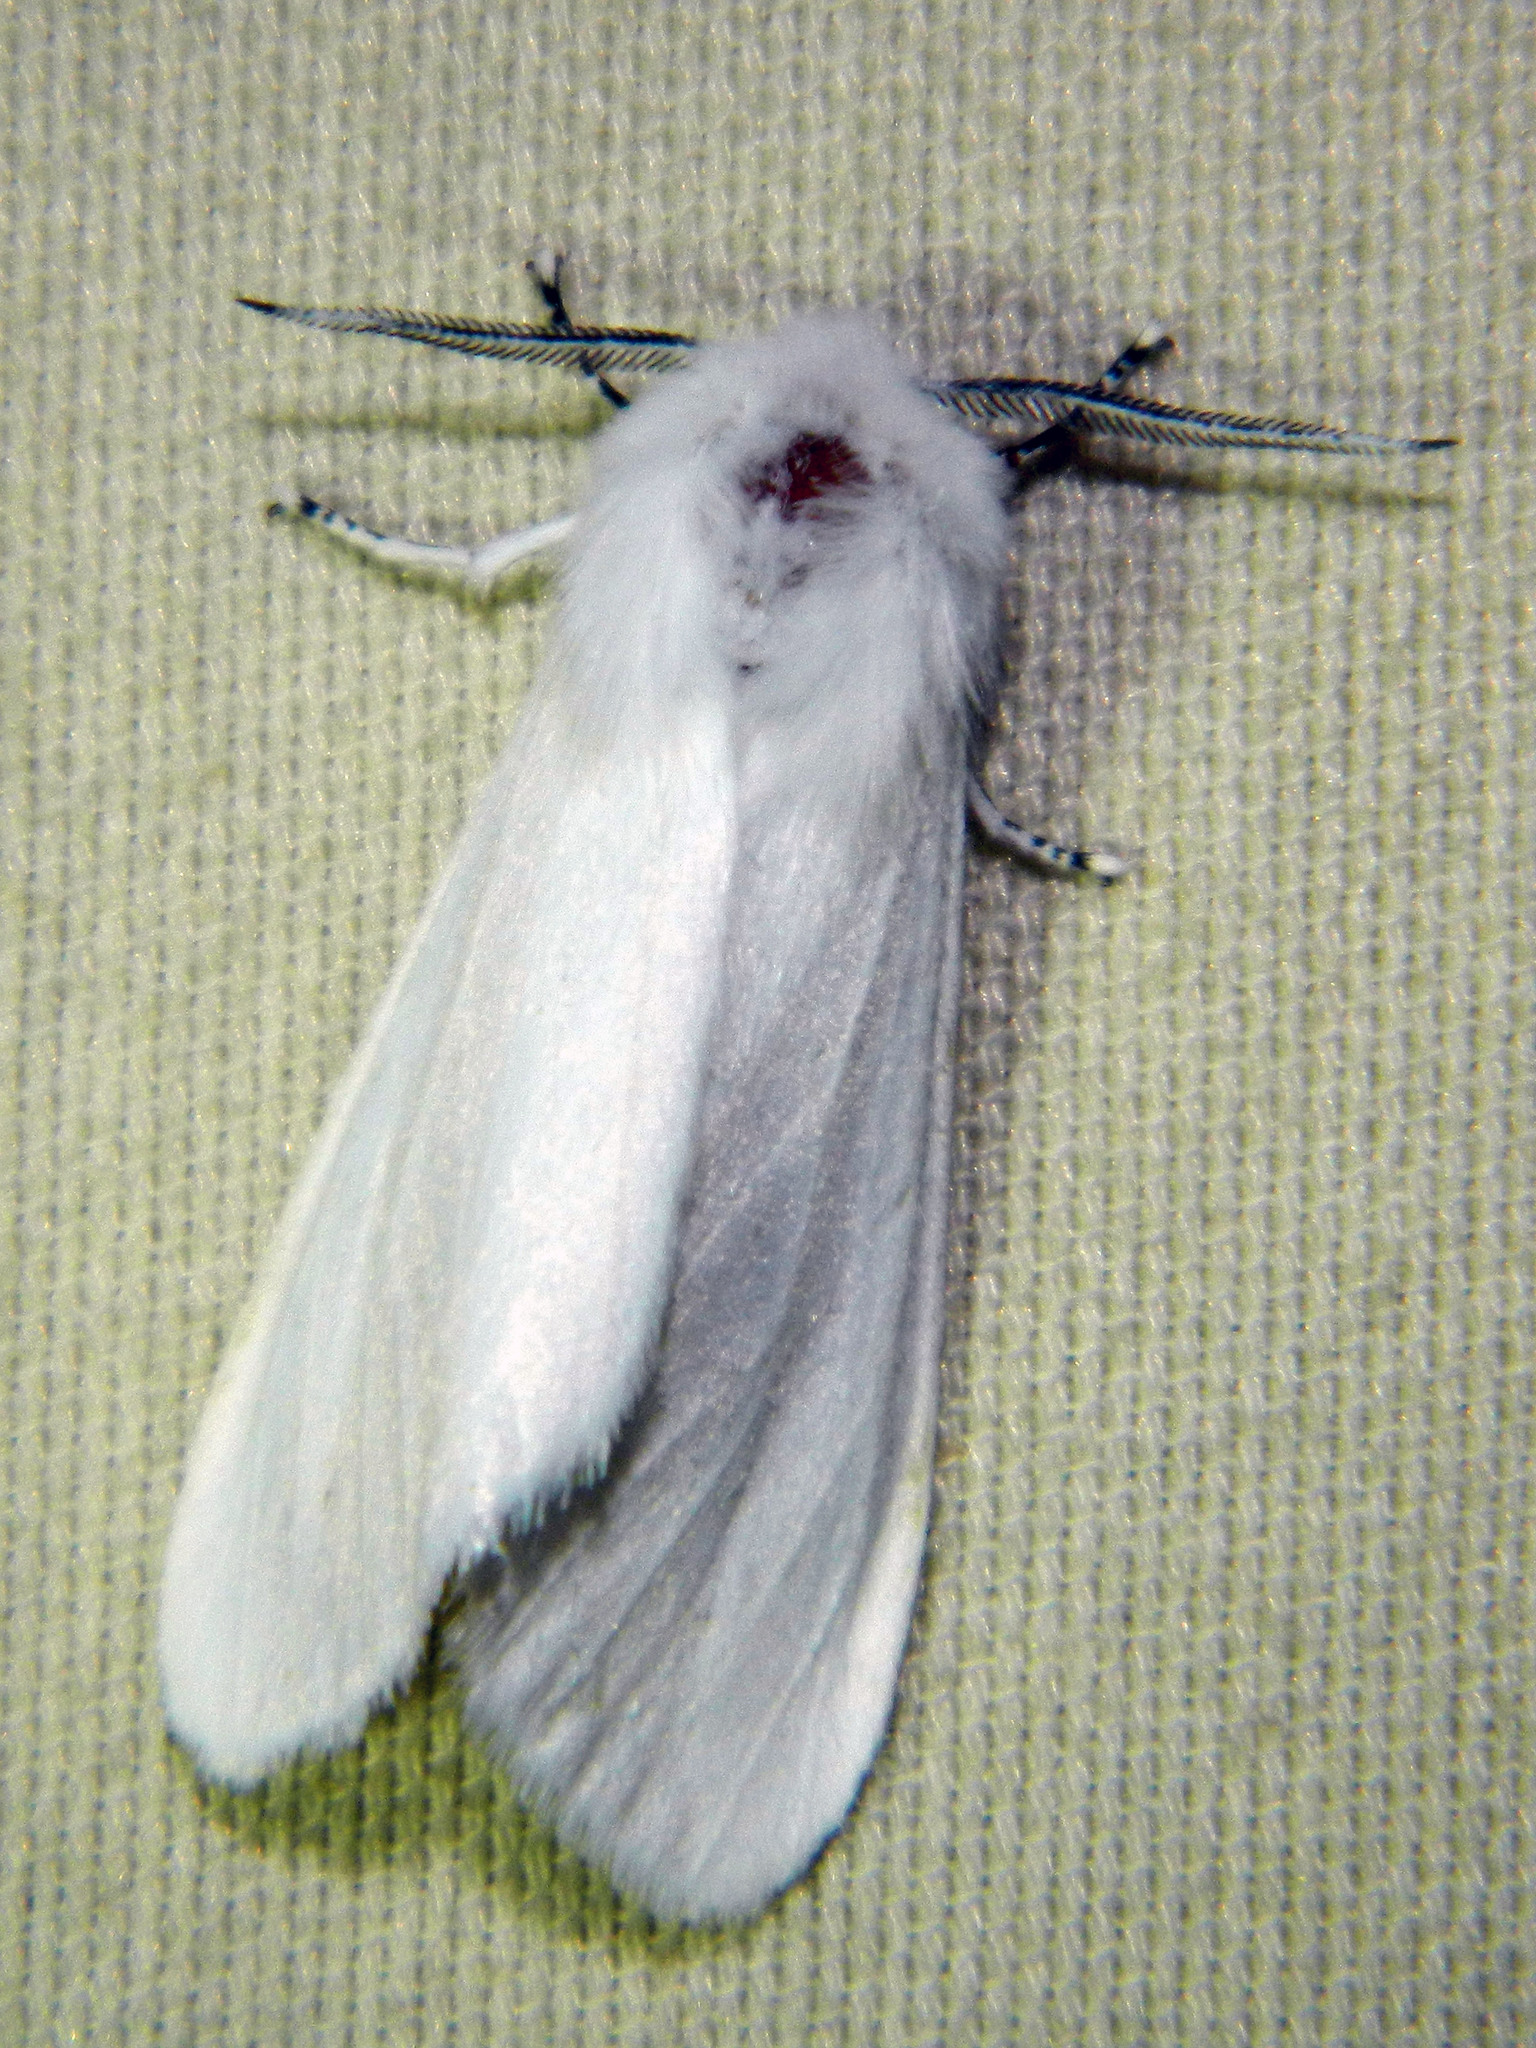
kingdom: Animalia
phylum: Arthropoda
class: Insecta
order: Lepidoptera
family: Erebidae
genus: Hyphantria
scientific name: Hyphantria cunea
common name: American white moth
